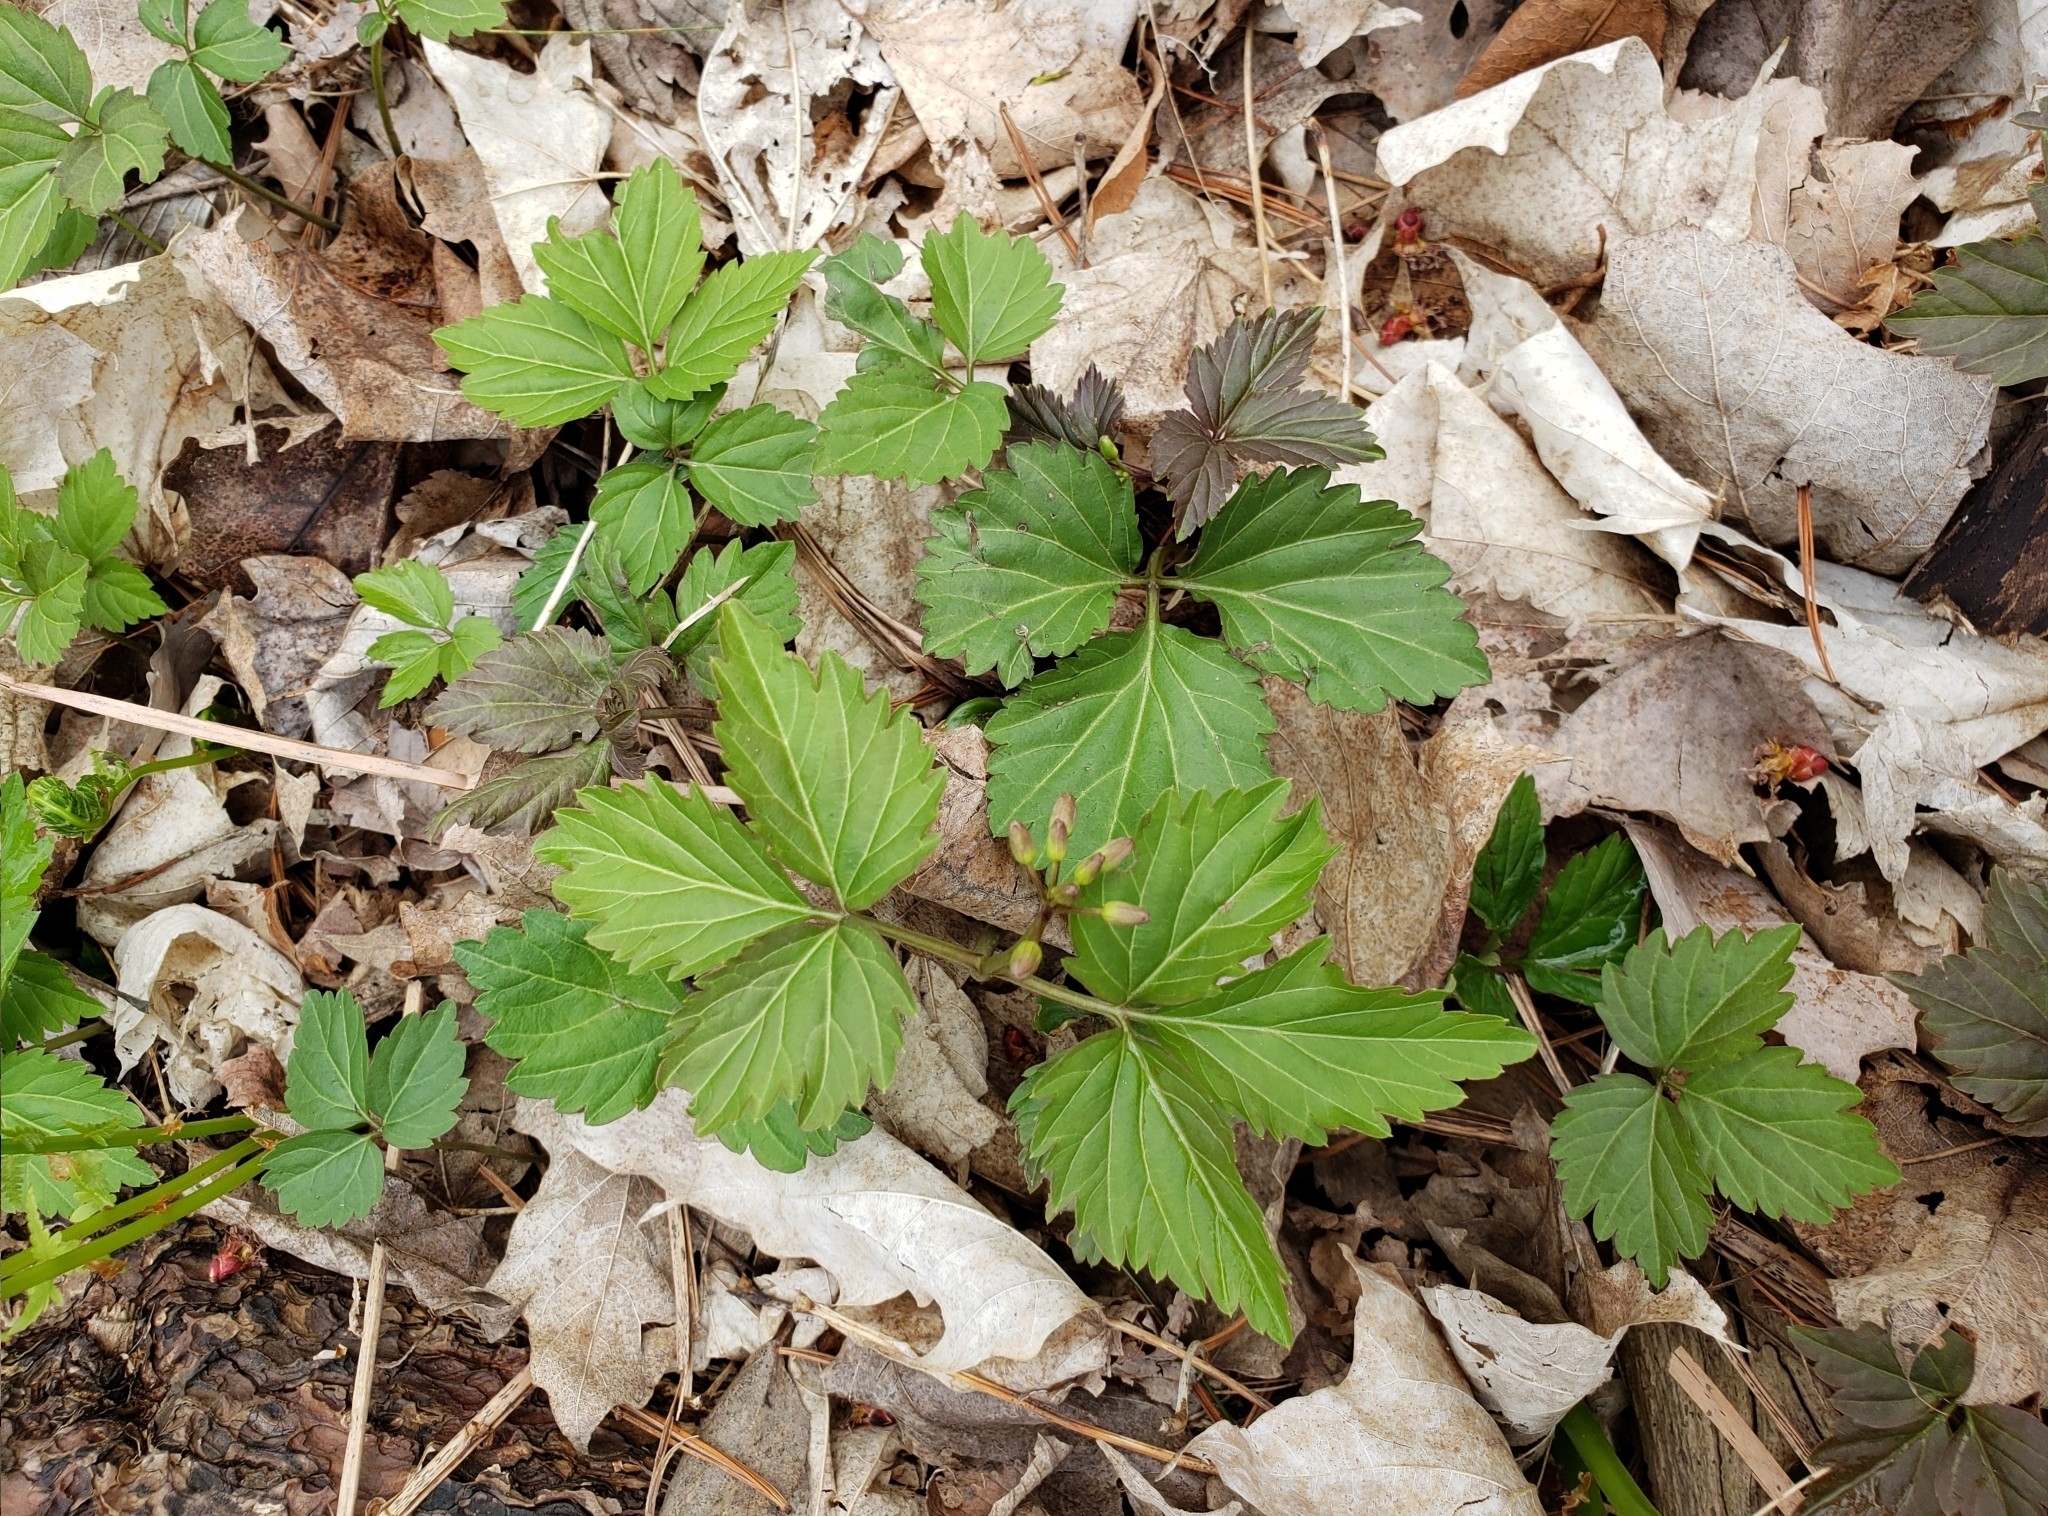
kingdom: Plantae
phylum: Tracheophyta
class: Magnoliopsida
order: Brassicales
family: Brassicaceae
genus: Cardamine
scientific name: Cardamine diphylla
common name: Broad-leaved toothwort
